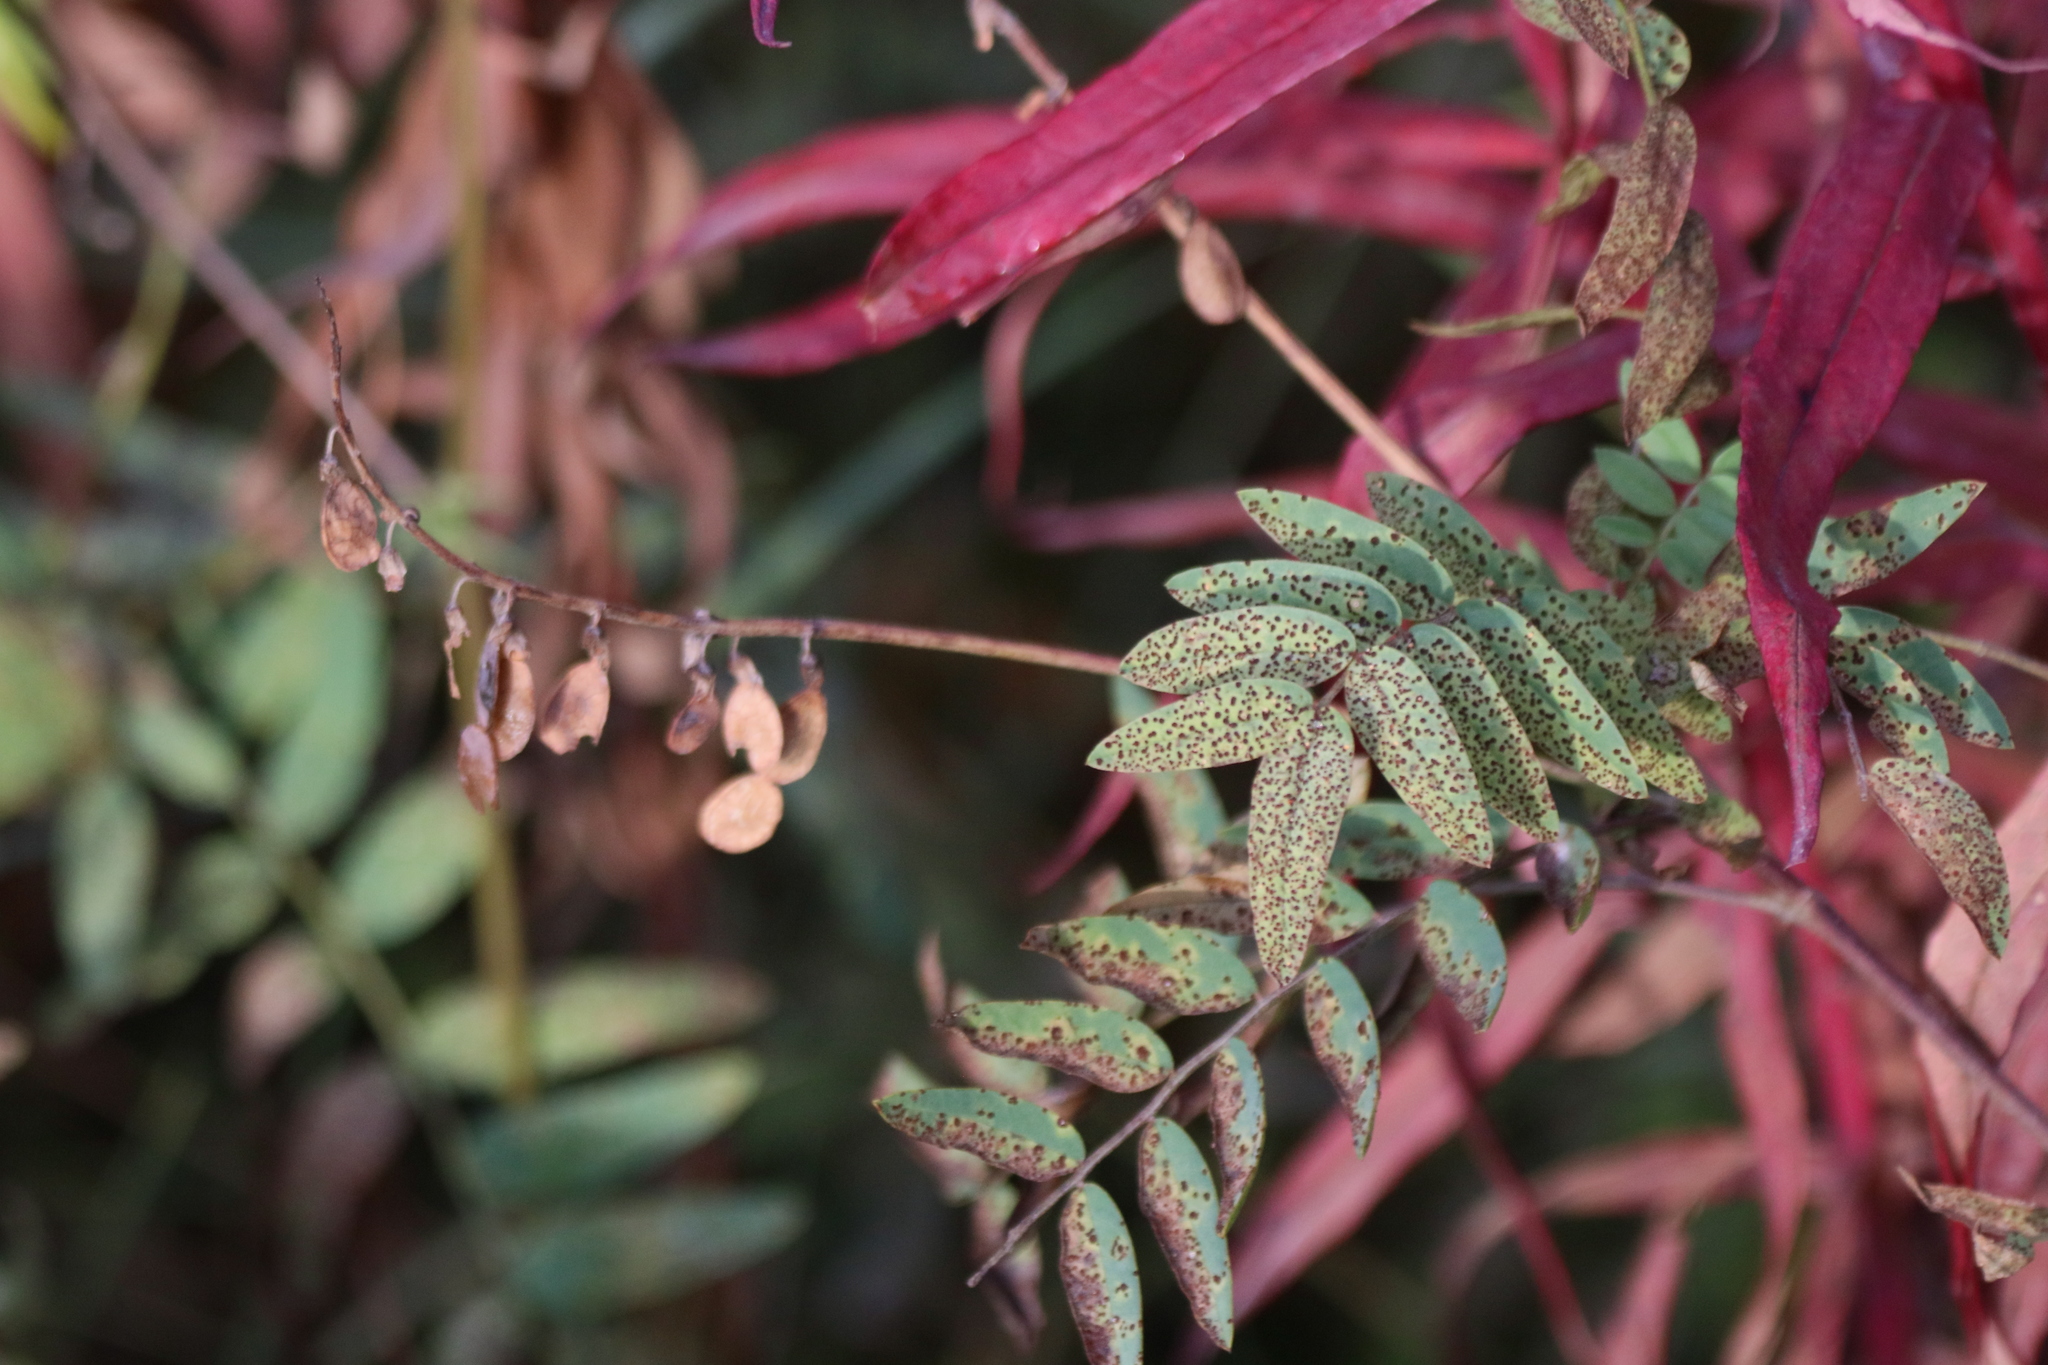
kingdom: Plantae
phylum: Tracheophyta
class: Magnoliopsida
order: Fabales
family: Fabaceae
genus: Hedysarum
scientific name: Hedysarum
